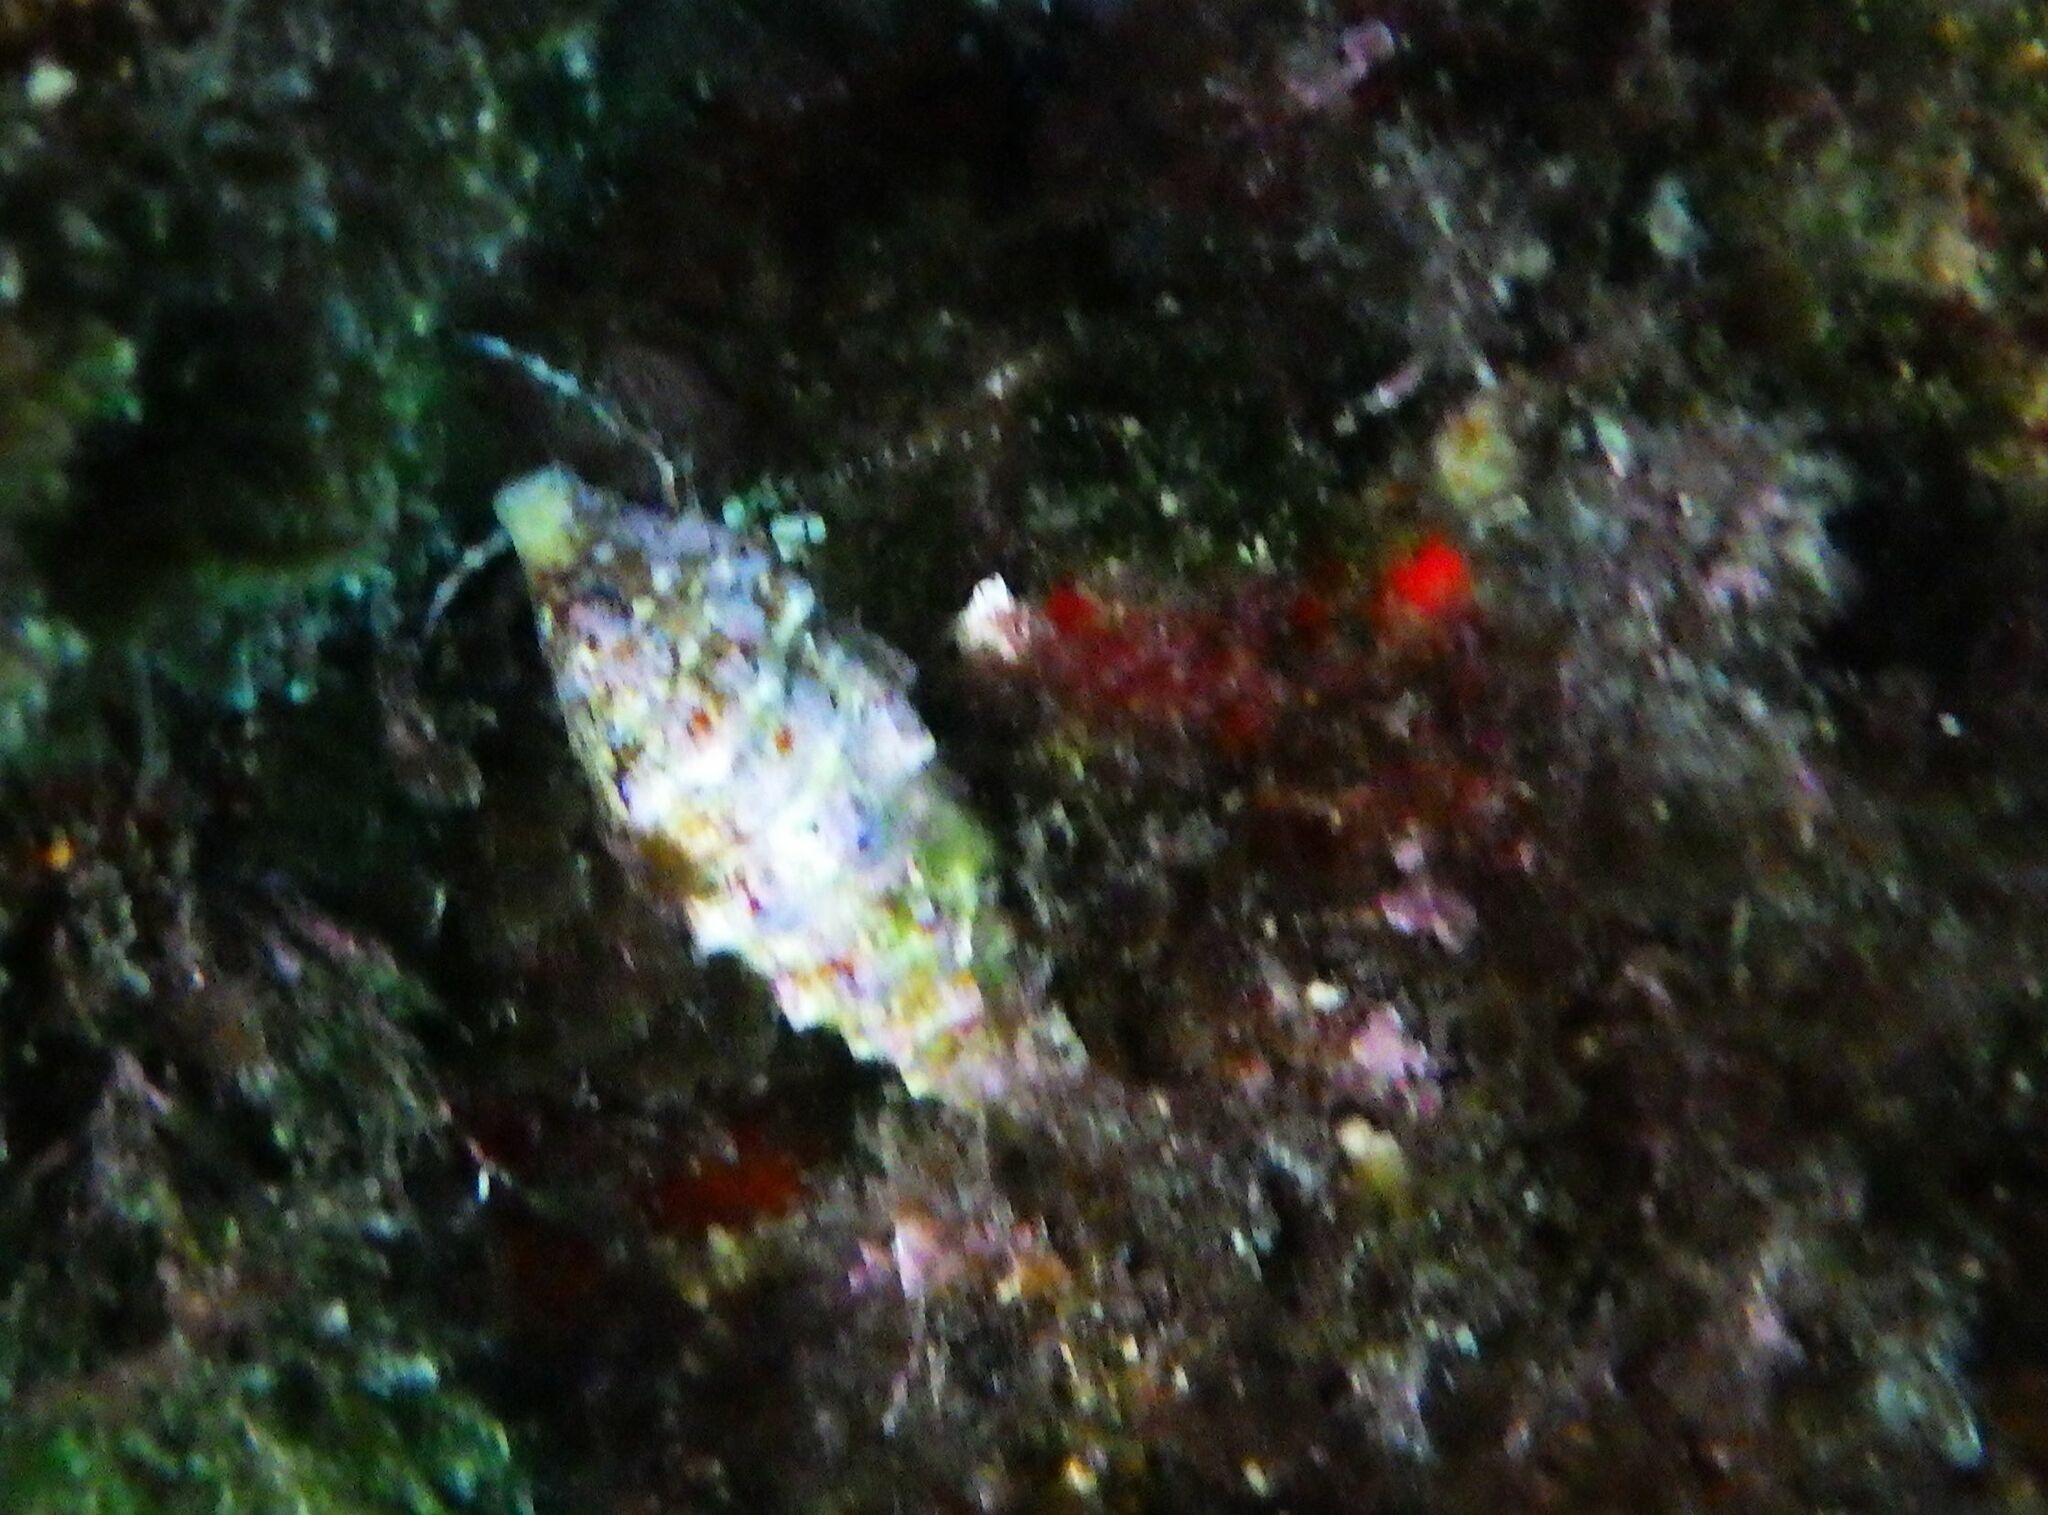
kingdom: Animalia
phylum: Arthropoda
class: Malacostraca
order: Decapoda
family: Paguridae
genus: Pagurus
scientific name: Pagurus anachoretus
